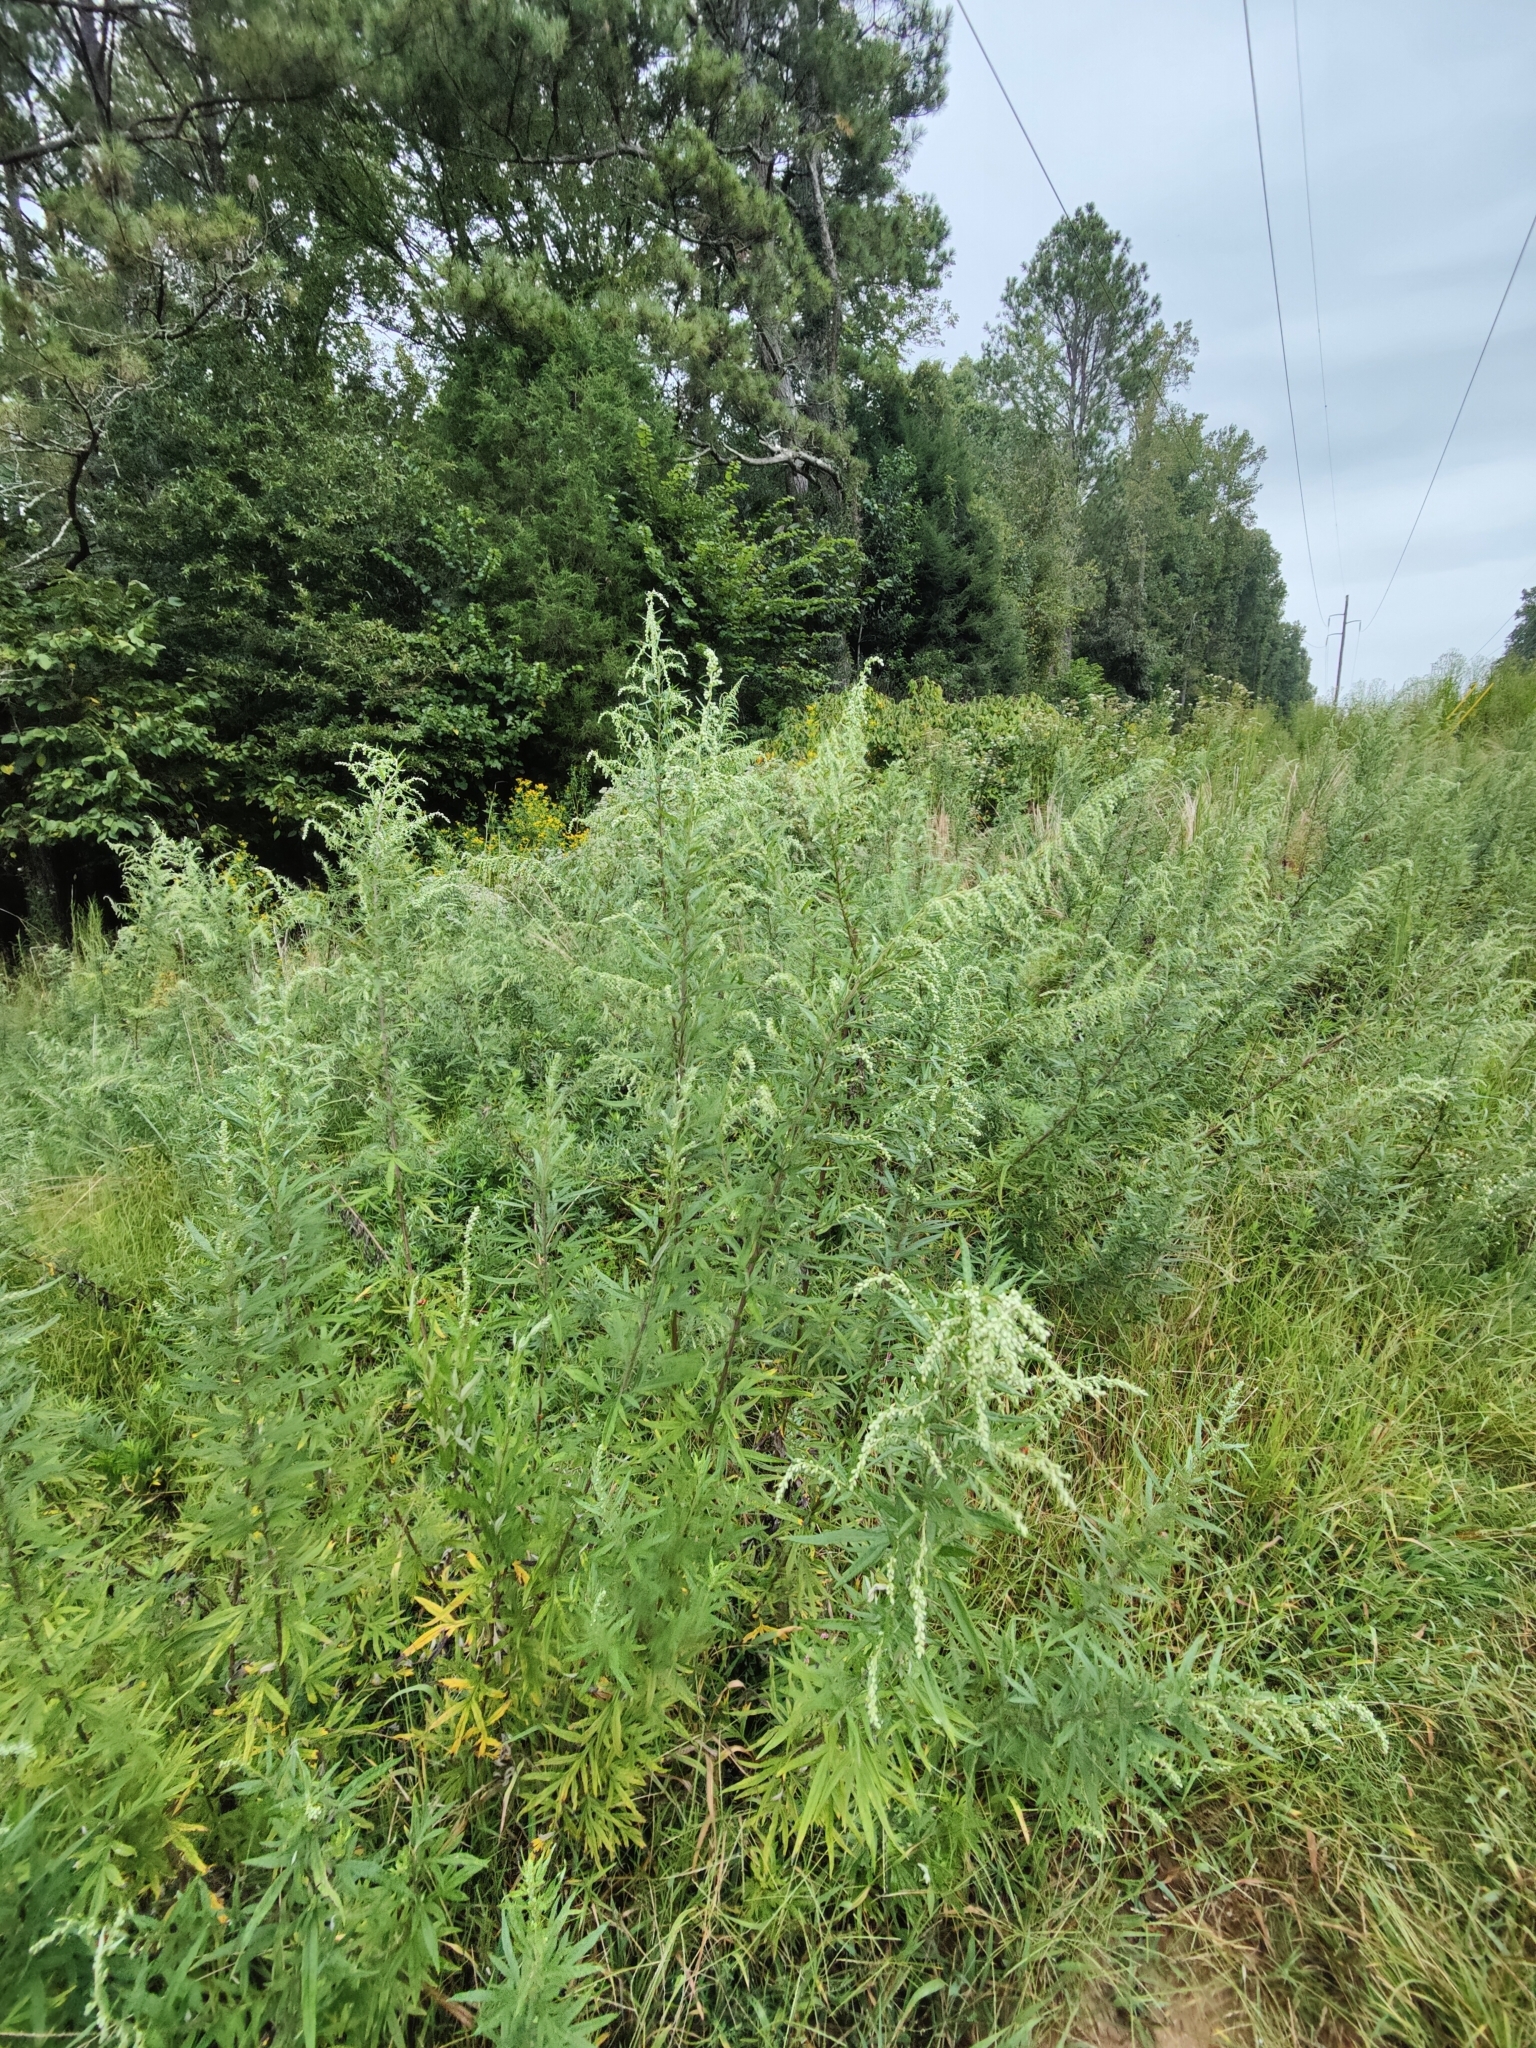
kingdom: Plantae
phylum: Tracheophyta
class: Magnoliopsida
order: Asterales
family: Asteraceae
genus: Artemisia
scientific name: Artemisia vulgaris
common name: Mugwort
